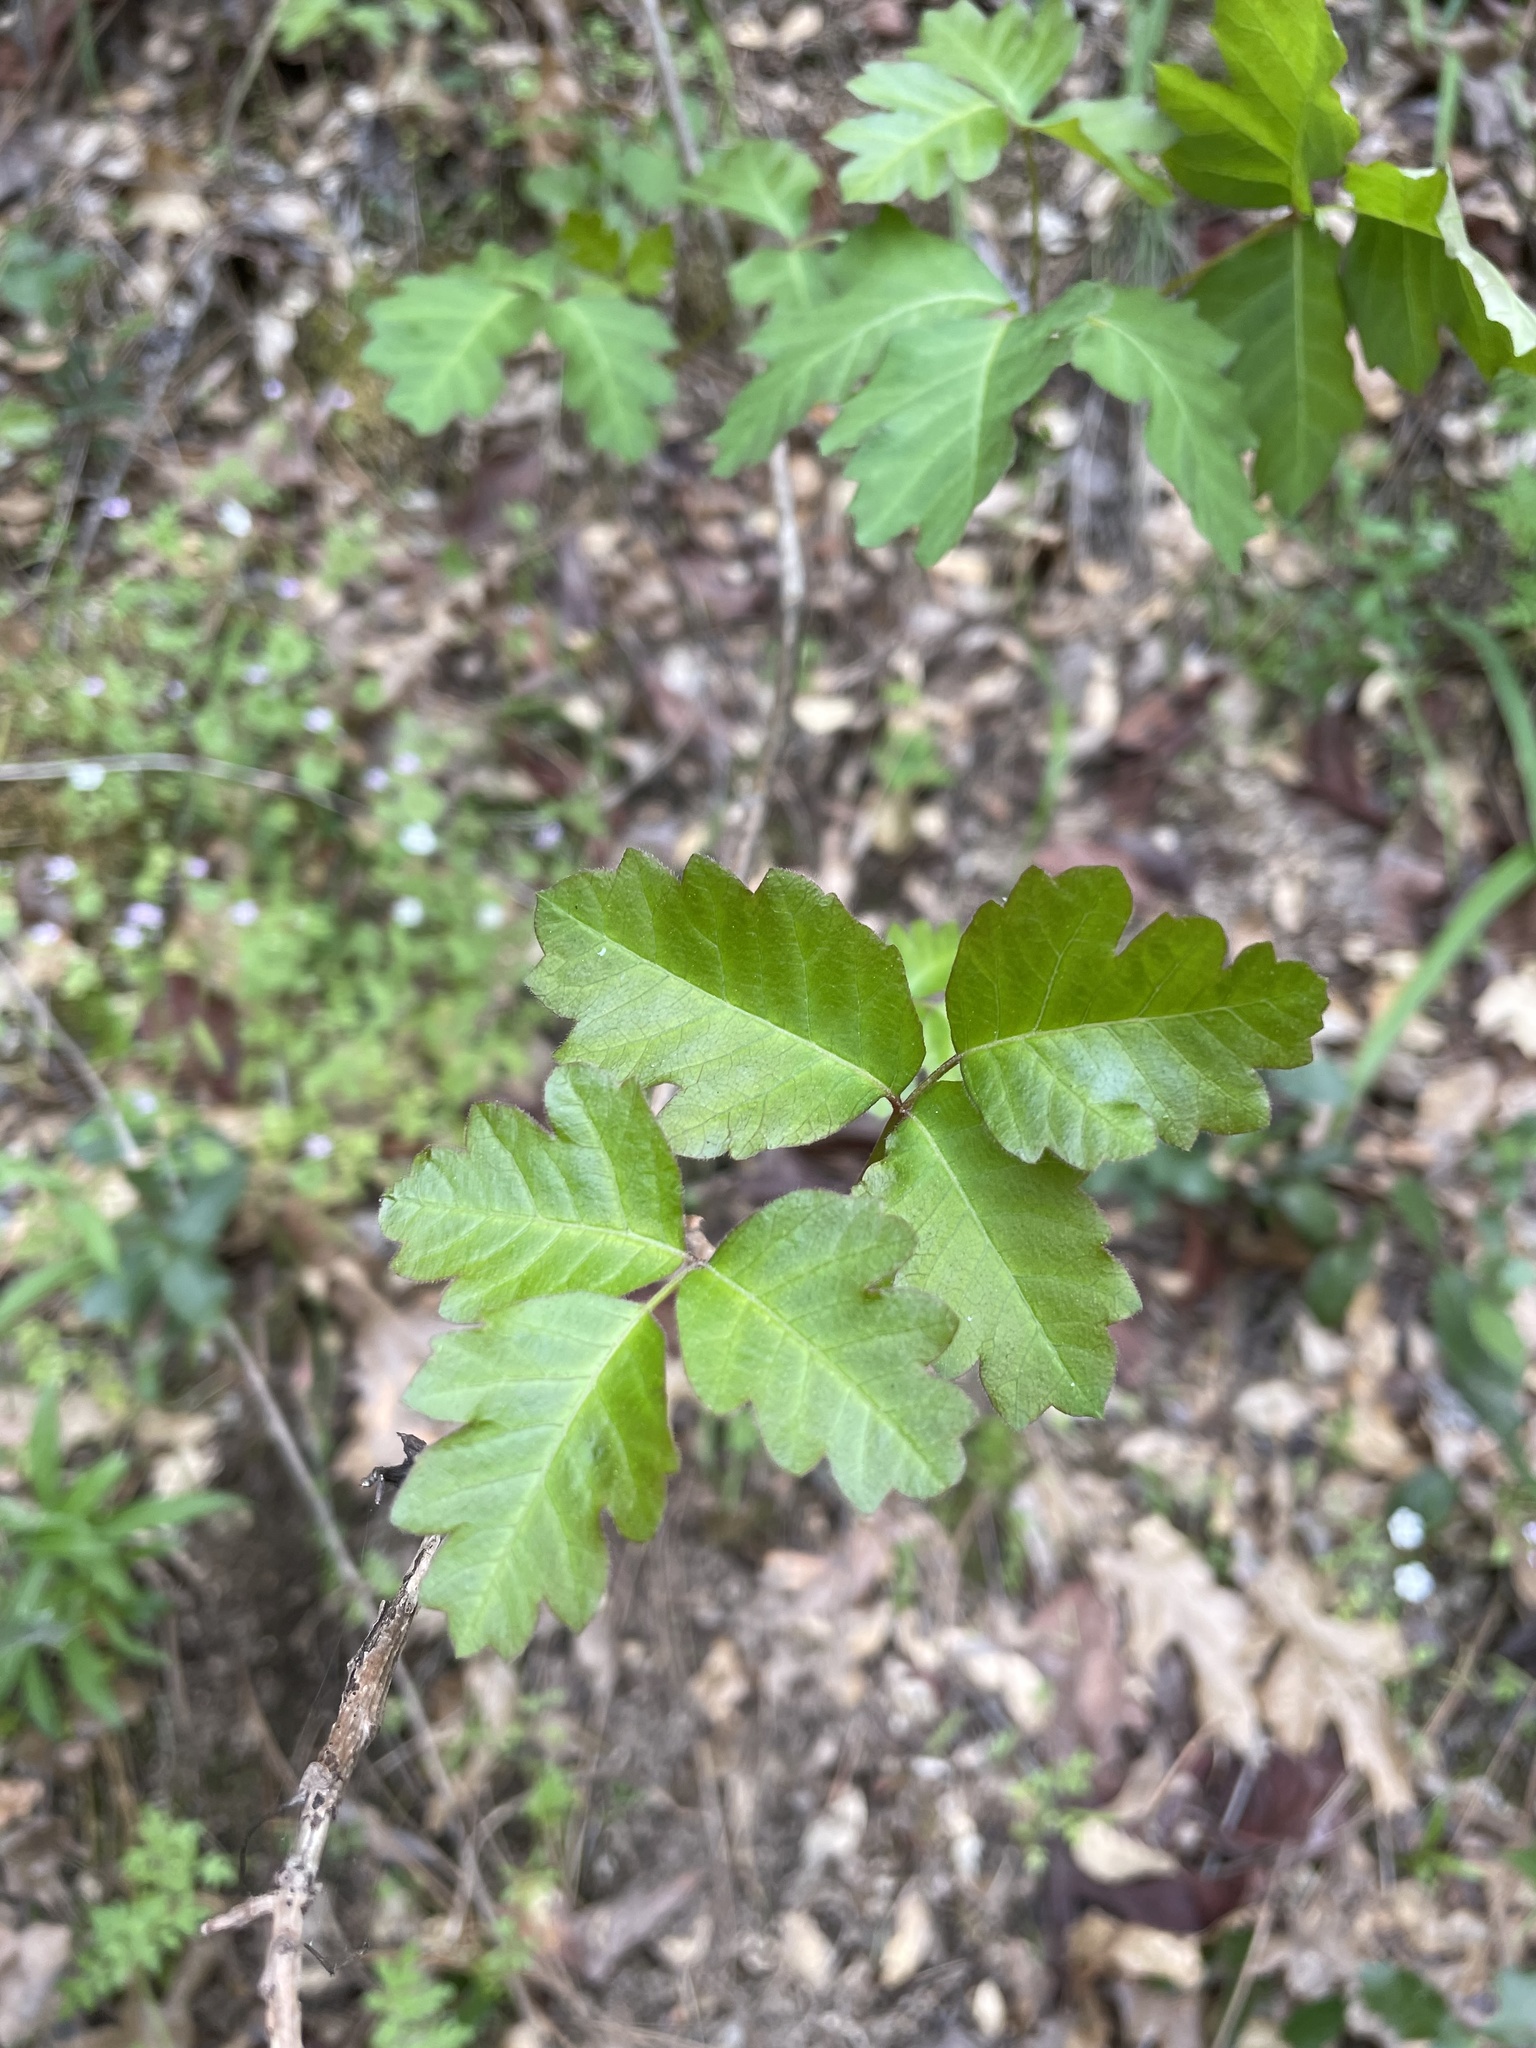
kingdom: Plantae
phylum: Tracheophyta
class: Magnoliopsida
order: Sapindales
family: Anacardiaceae
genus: Toxicodendron
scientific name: Toxicodendron diversilobum
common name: Pacific poison-oak
